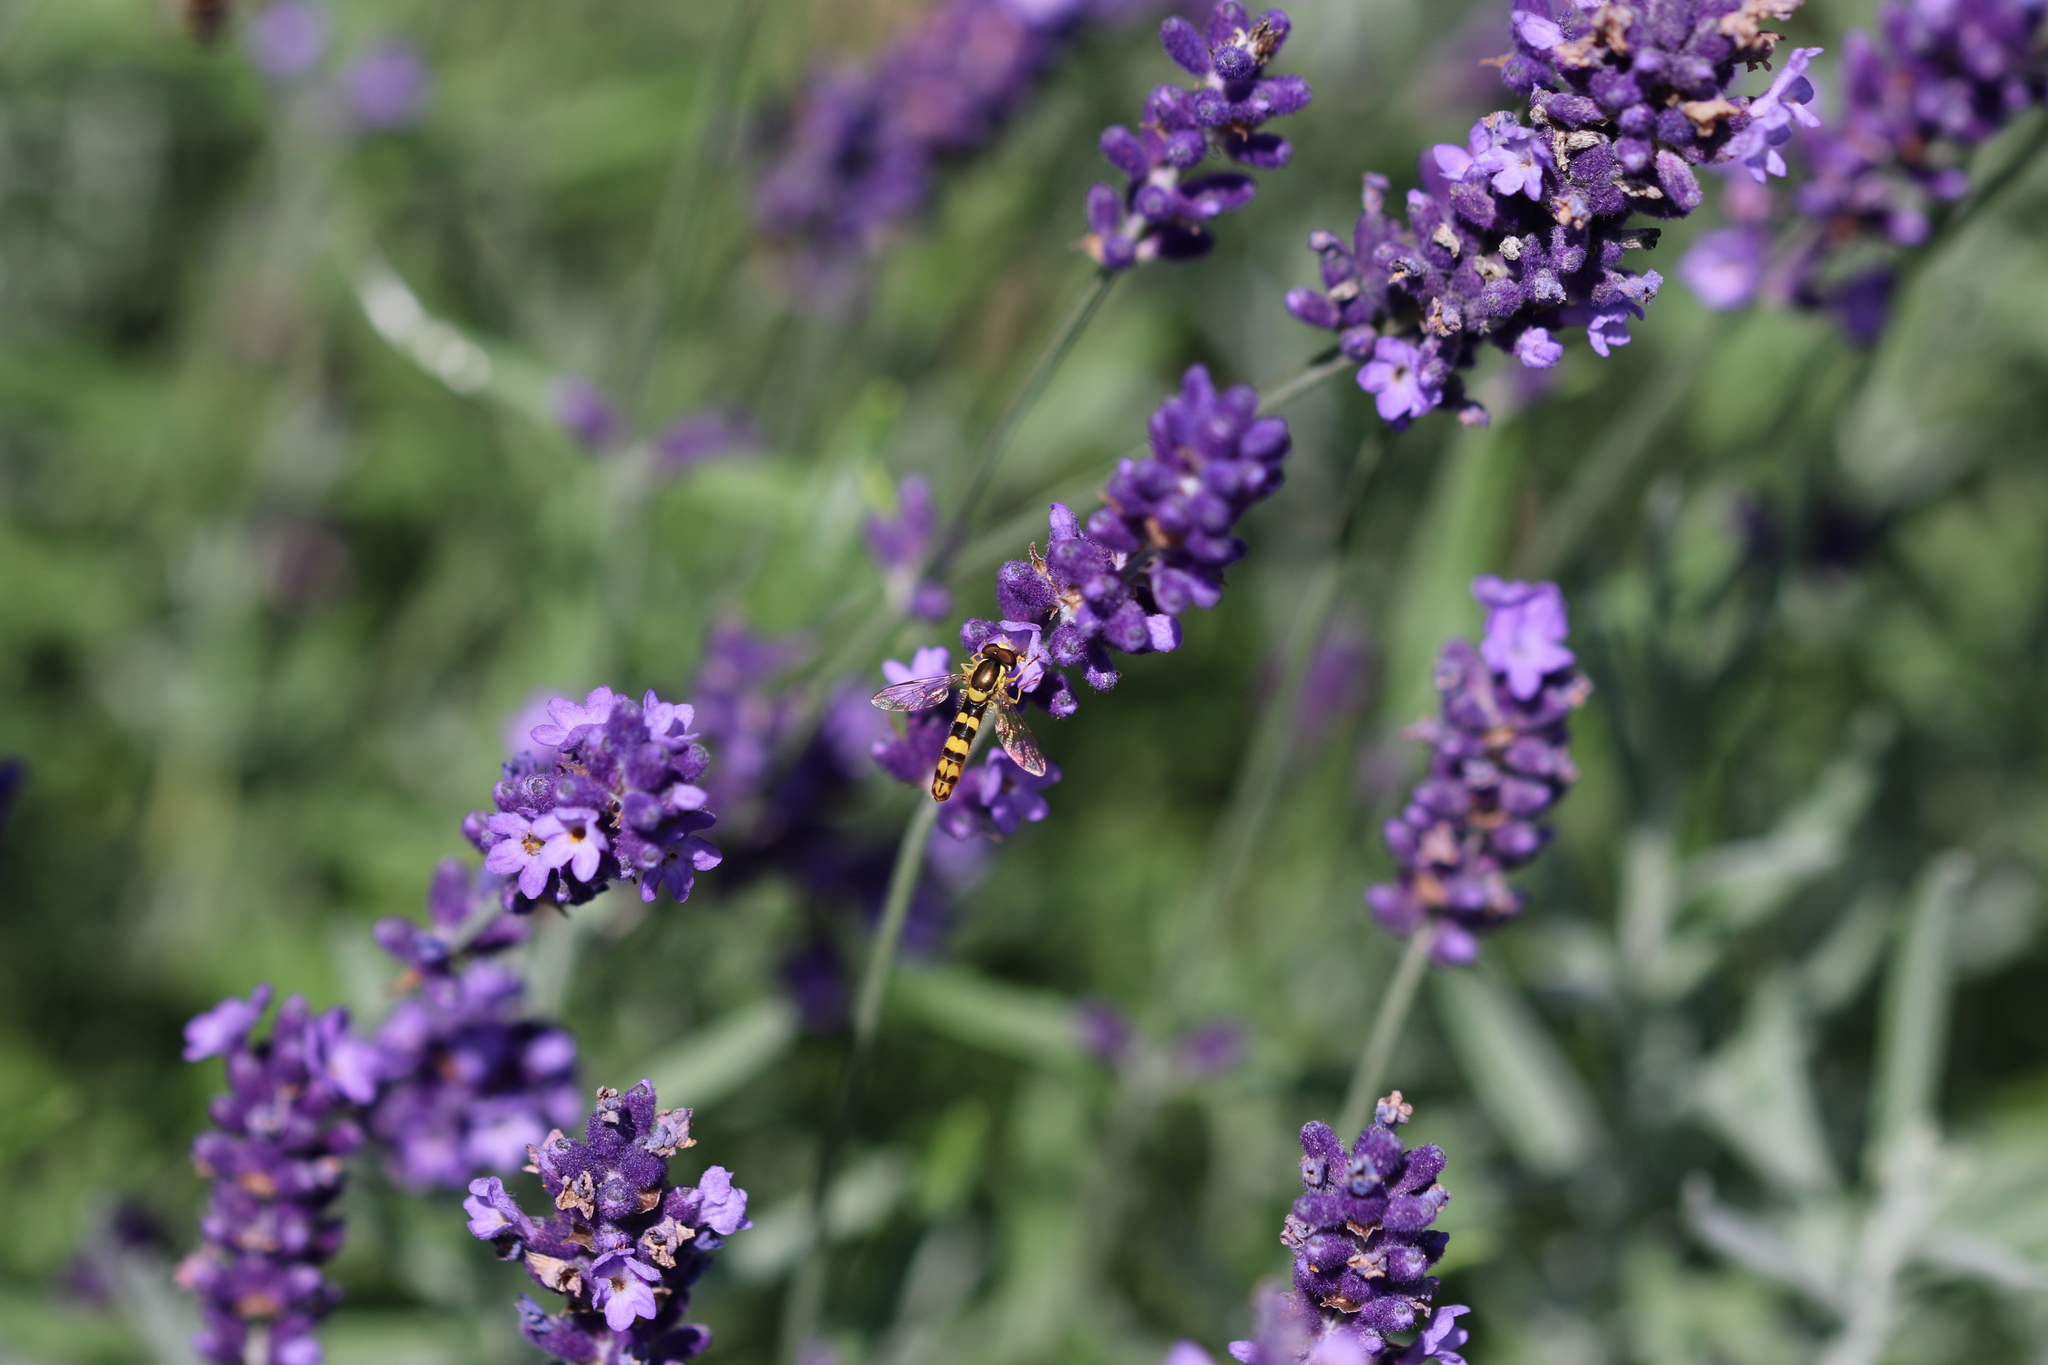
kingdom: Animalia
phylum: Arthropoda
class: Insecta
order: Diptera
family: Syrphidae
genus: Sphaerophoria
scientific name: Sphaerophoria scripta
